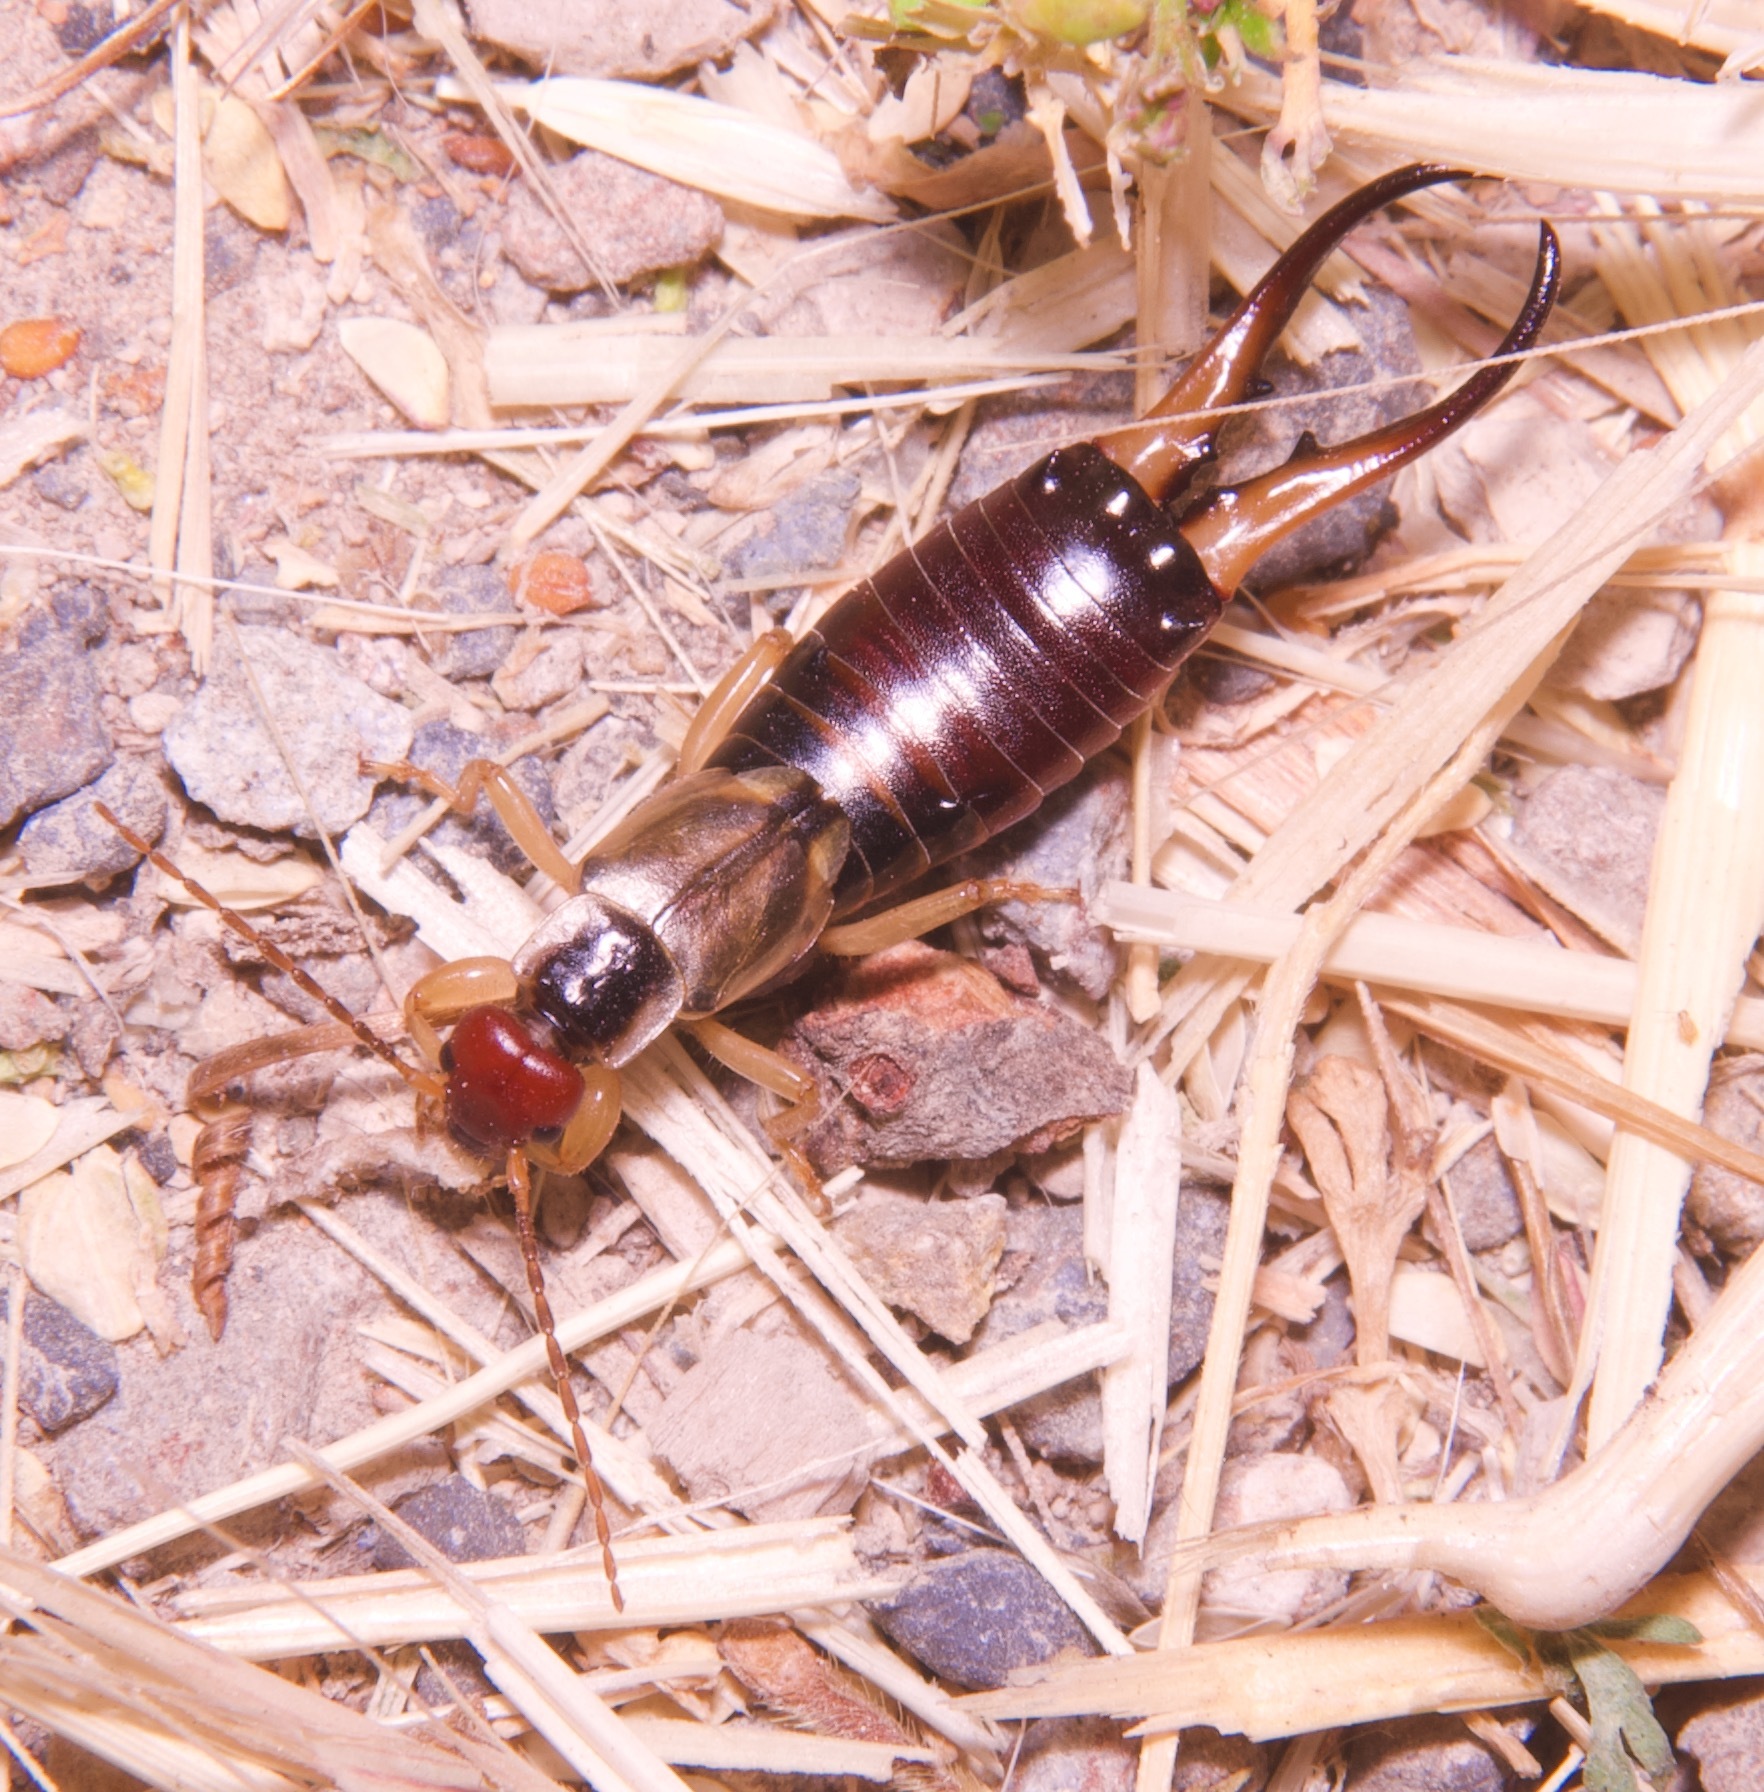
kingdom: Animalia
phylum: Arthropoda
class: Insecta
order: Dermaptera
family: Forficulidae
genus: Forficula
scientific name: Forficula dentata
